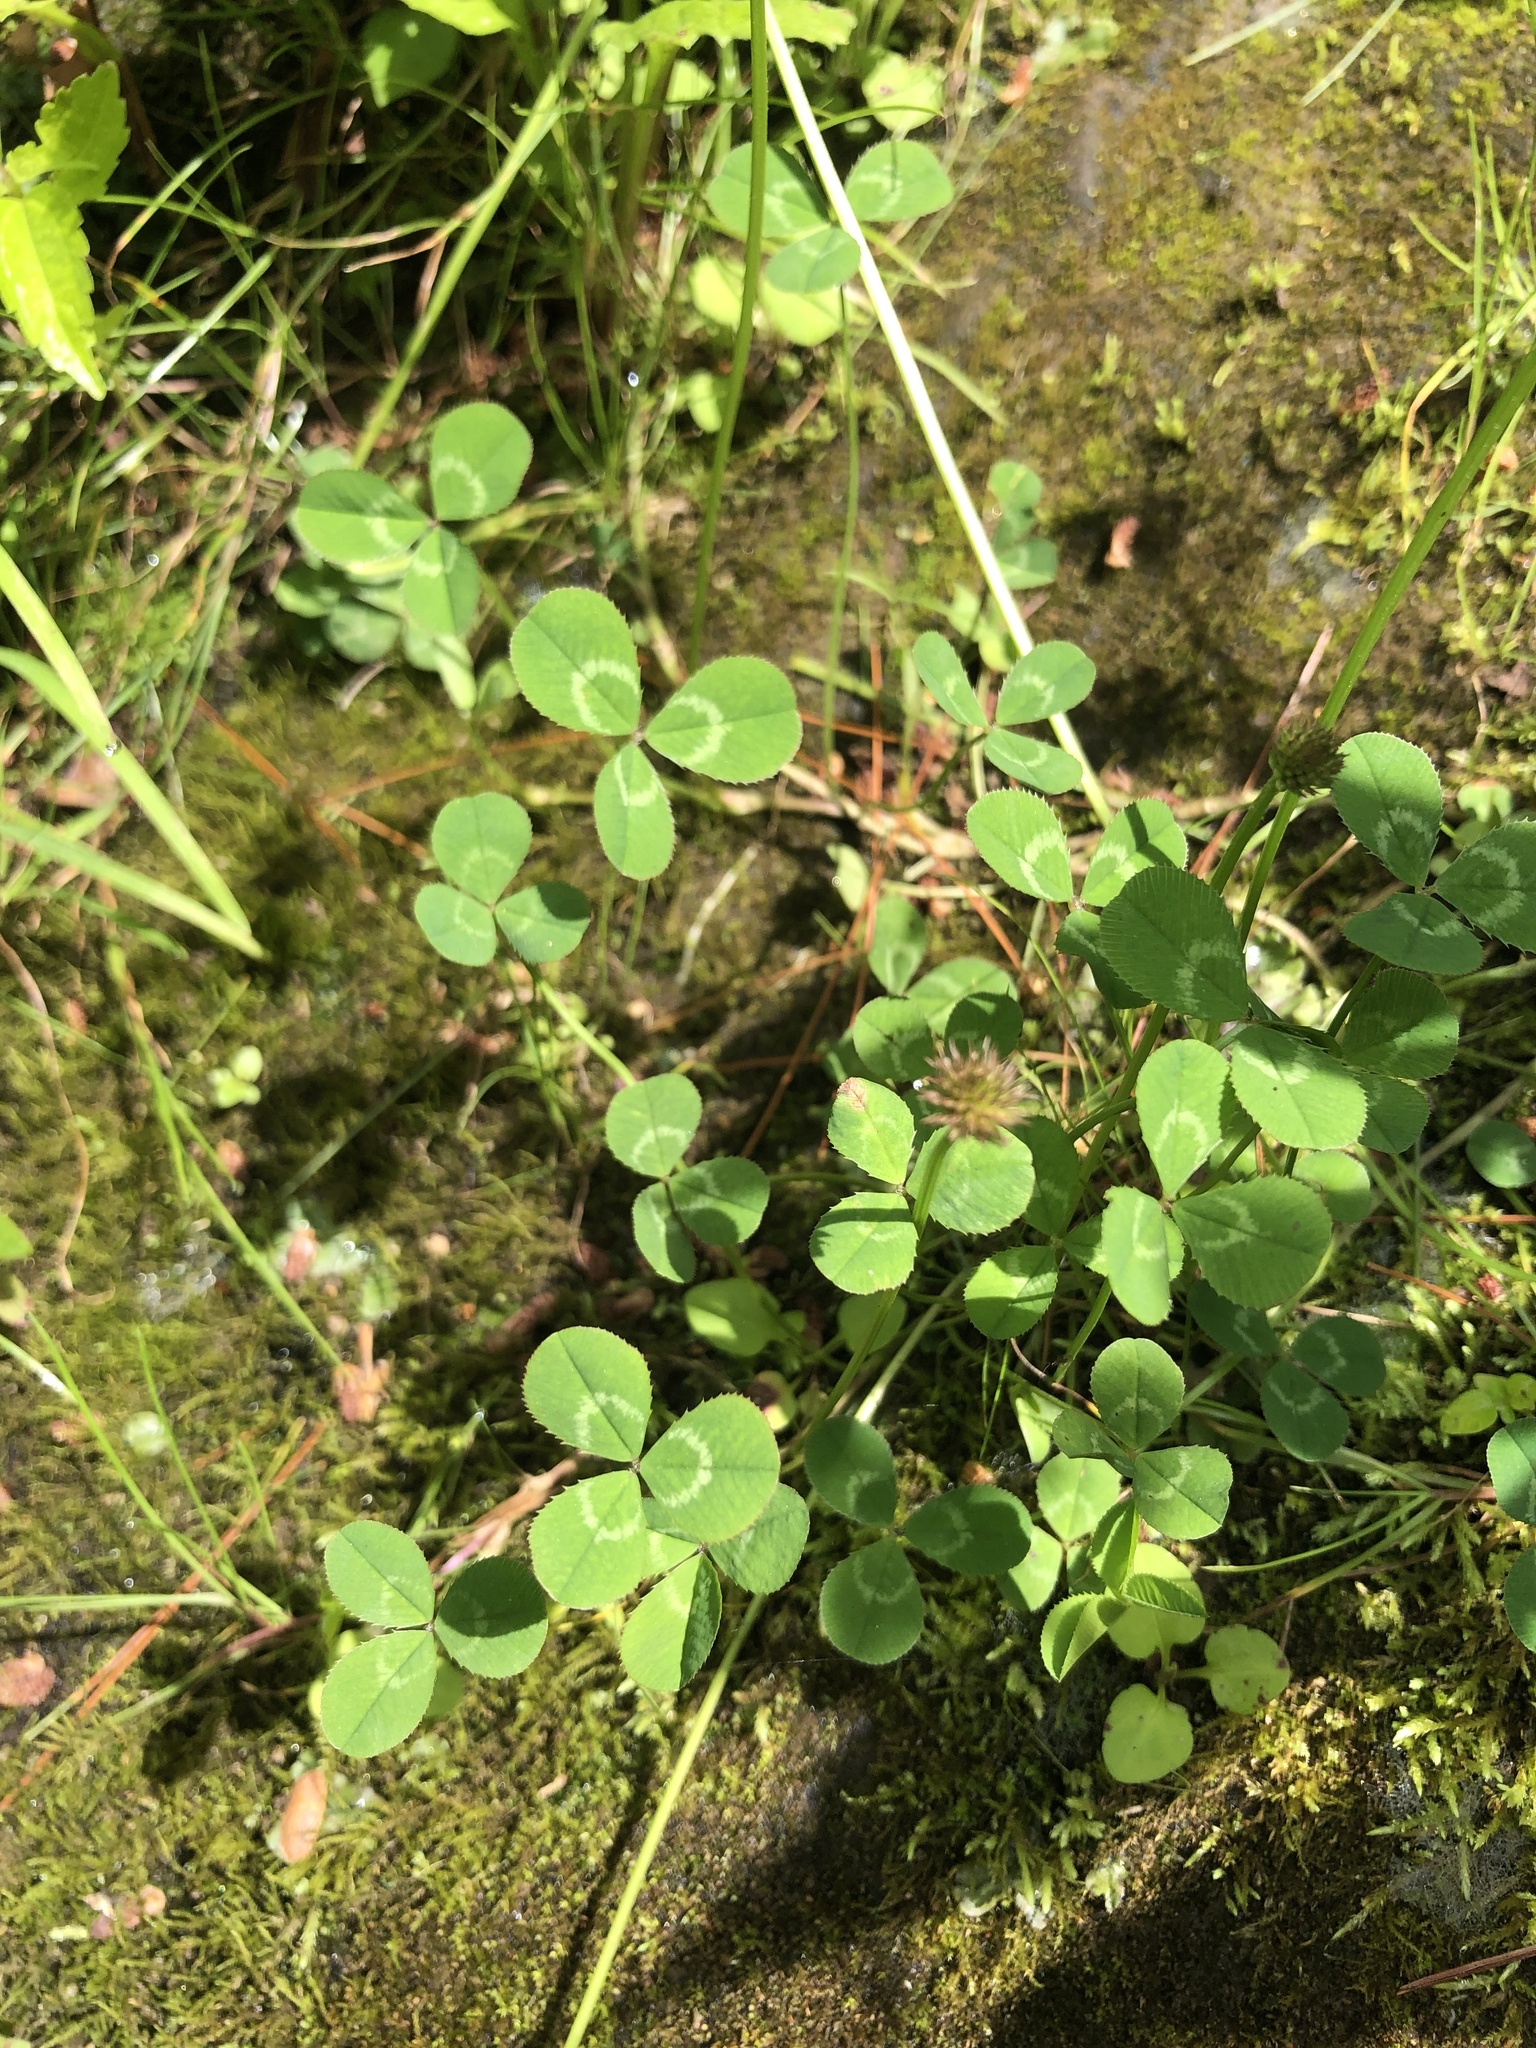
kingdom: Plantae
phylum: Tracheophyta
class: Magnoliopsida
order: Fabales
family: Fabaceae
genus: Trifolium
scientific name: Trifolium repens
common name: White clover
